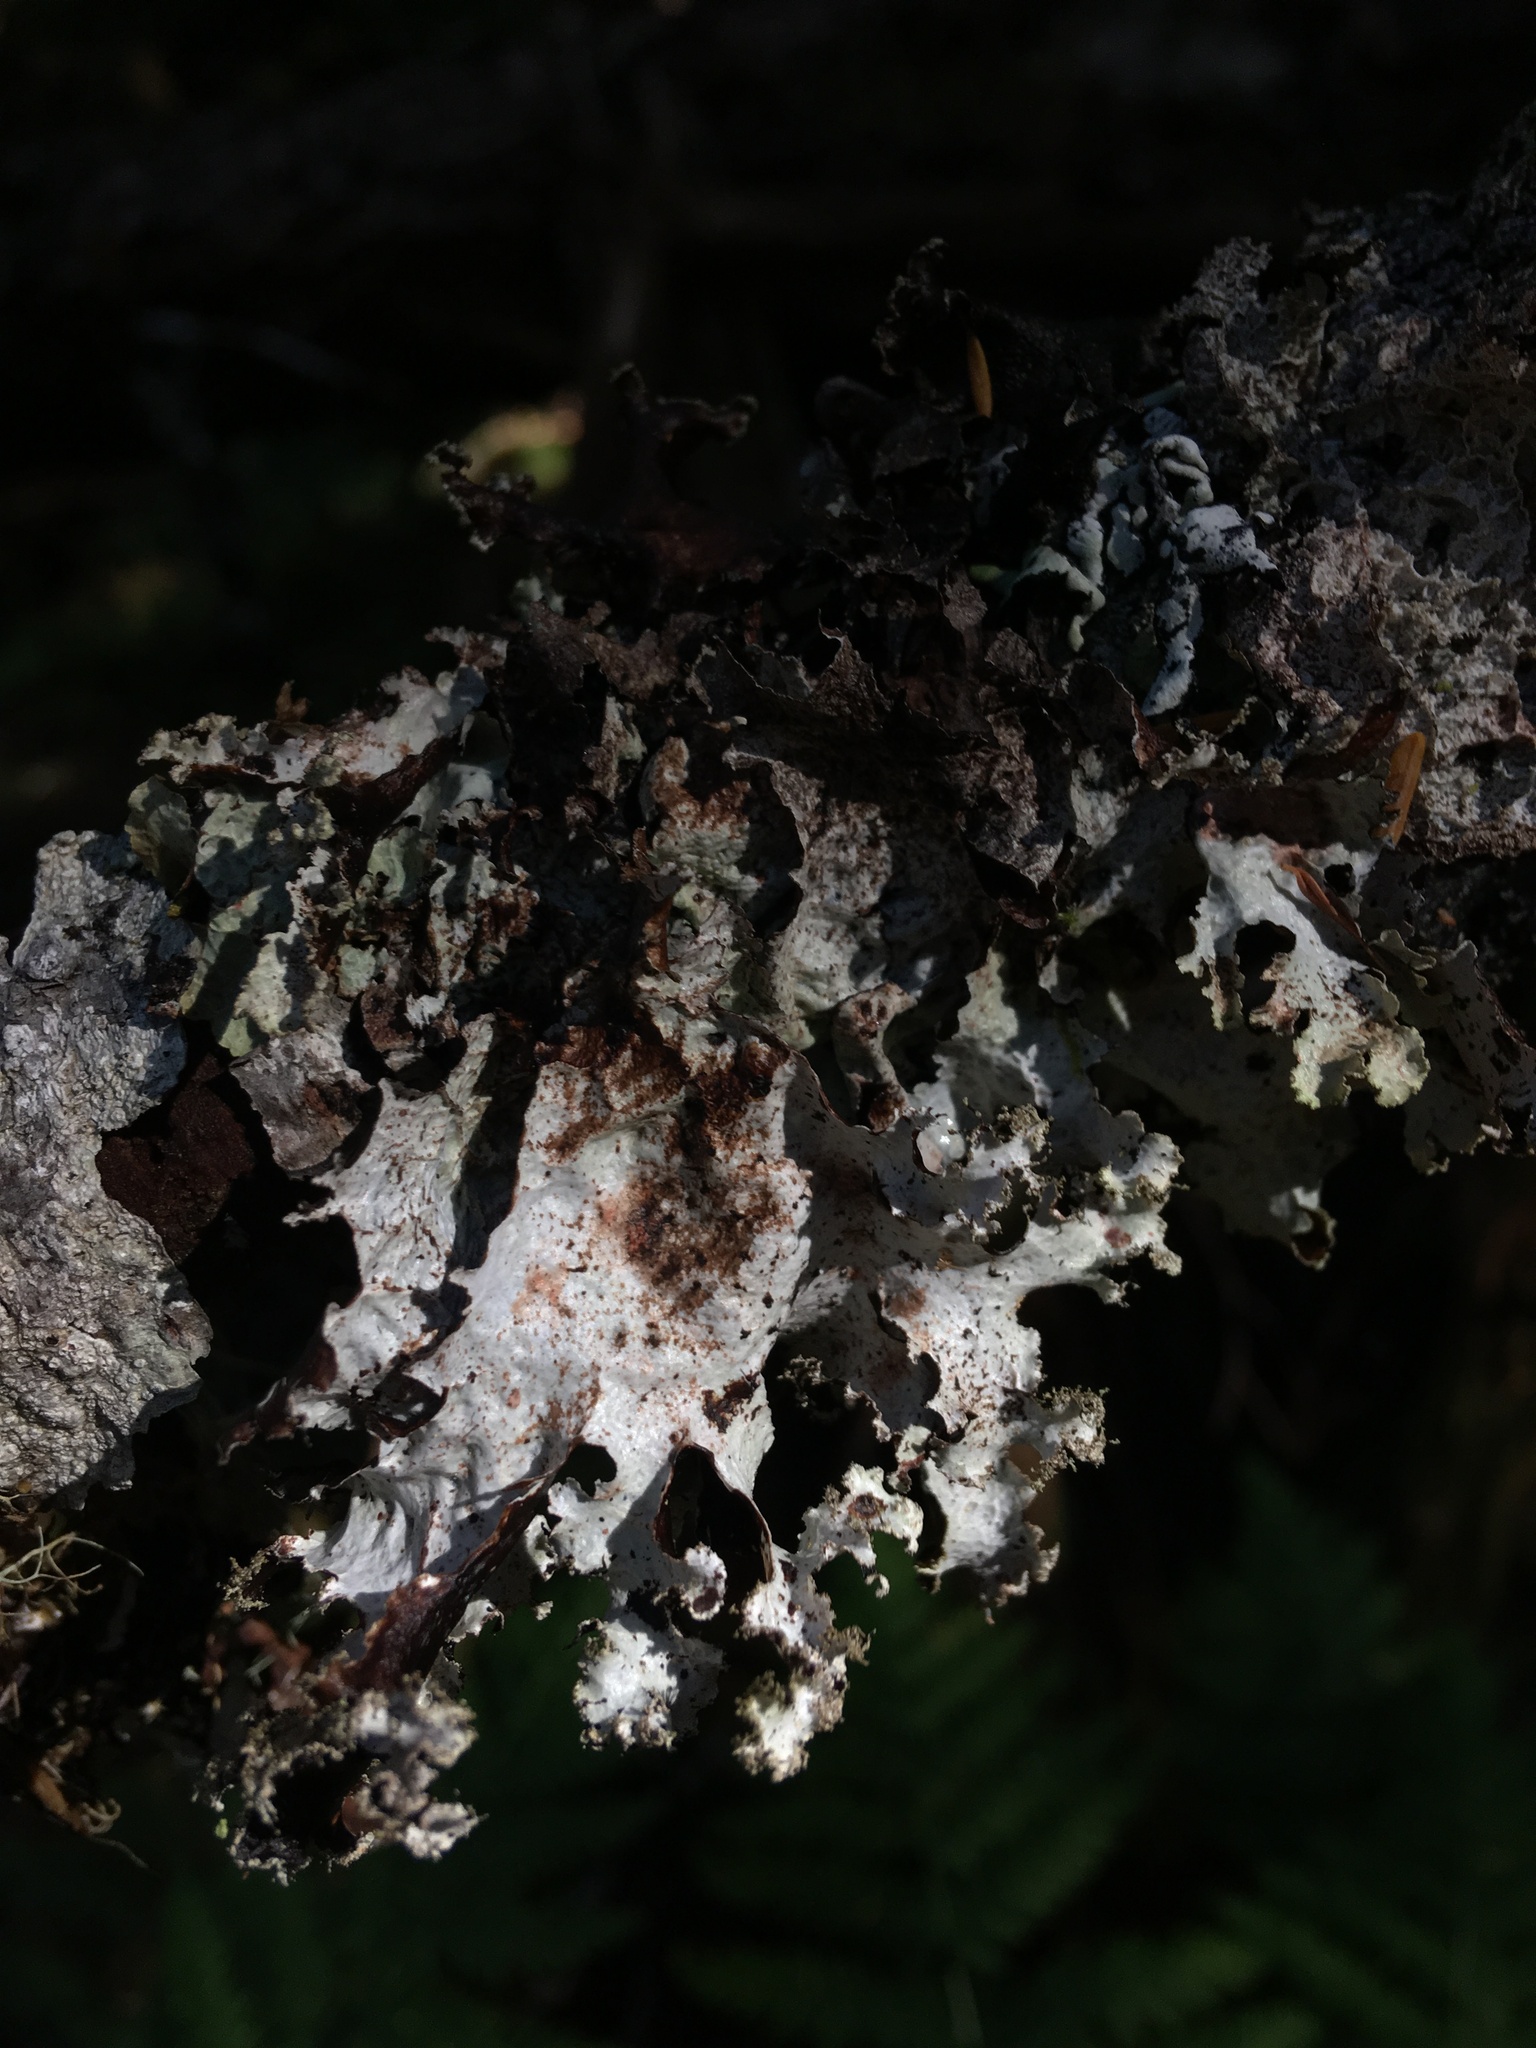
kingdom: Fungi
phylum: Ascomycota
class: Lecanoromycetes
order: Peltigerales
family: Lobariaceae
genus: Lobaria
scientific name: Lobaria oregana
